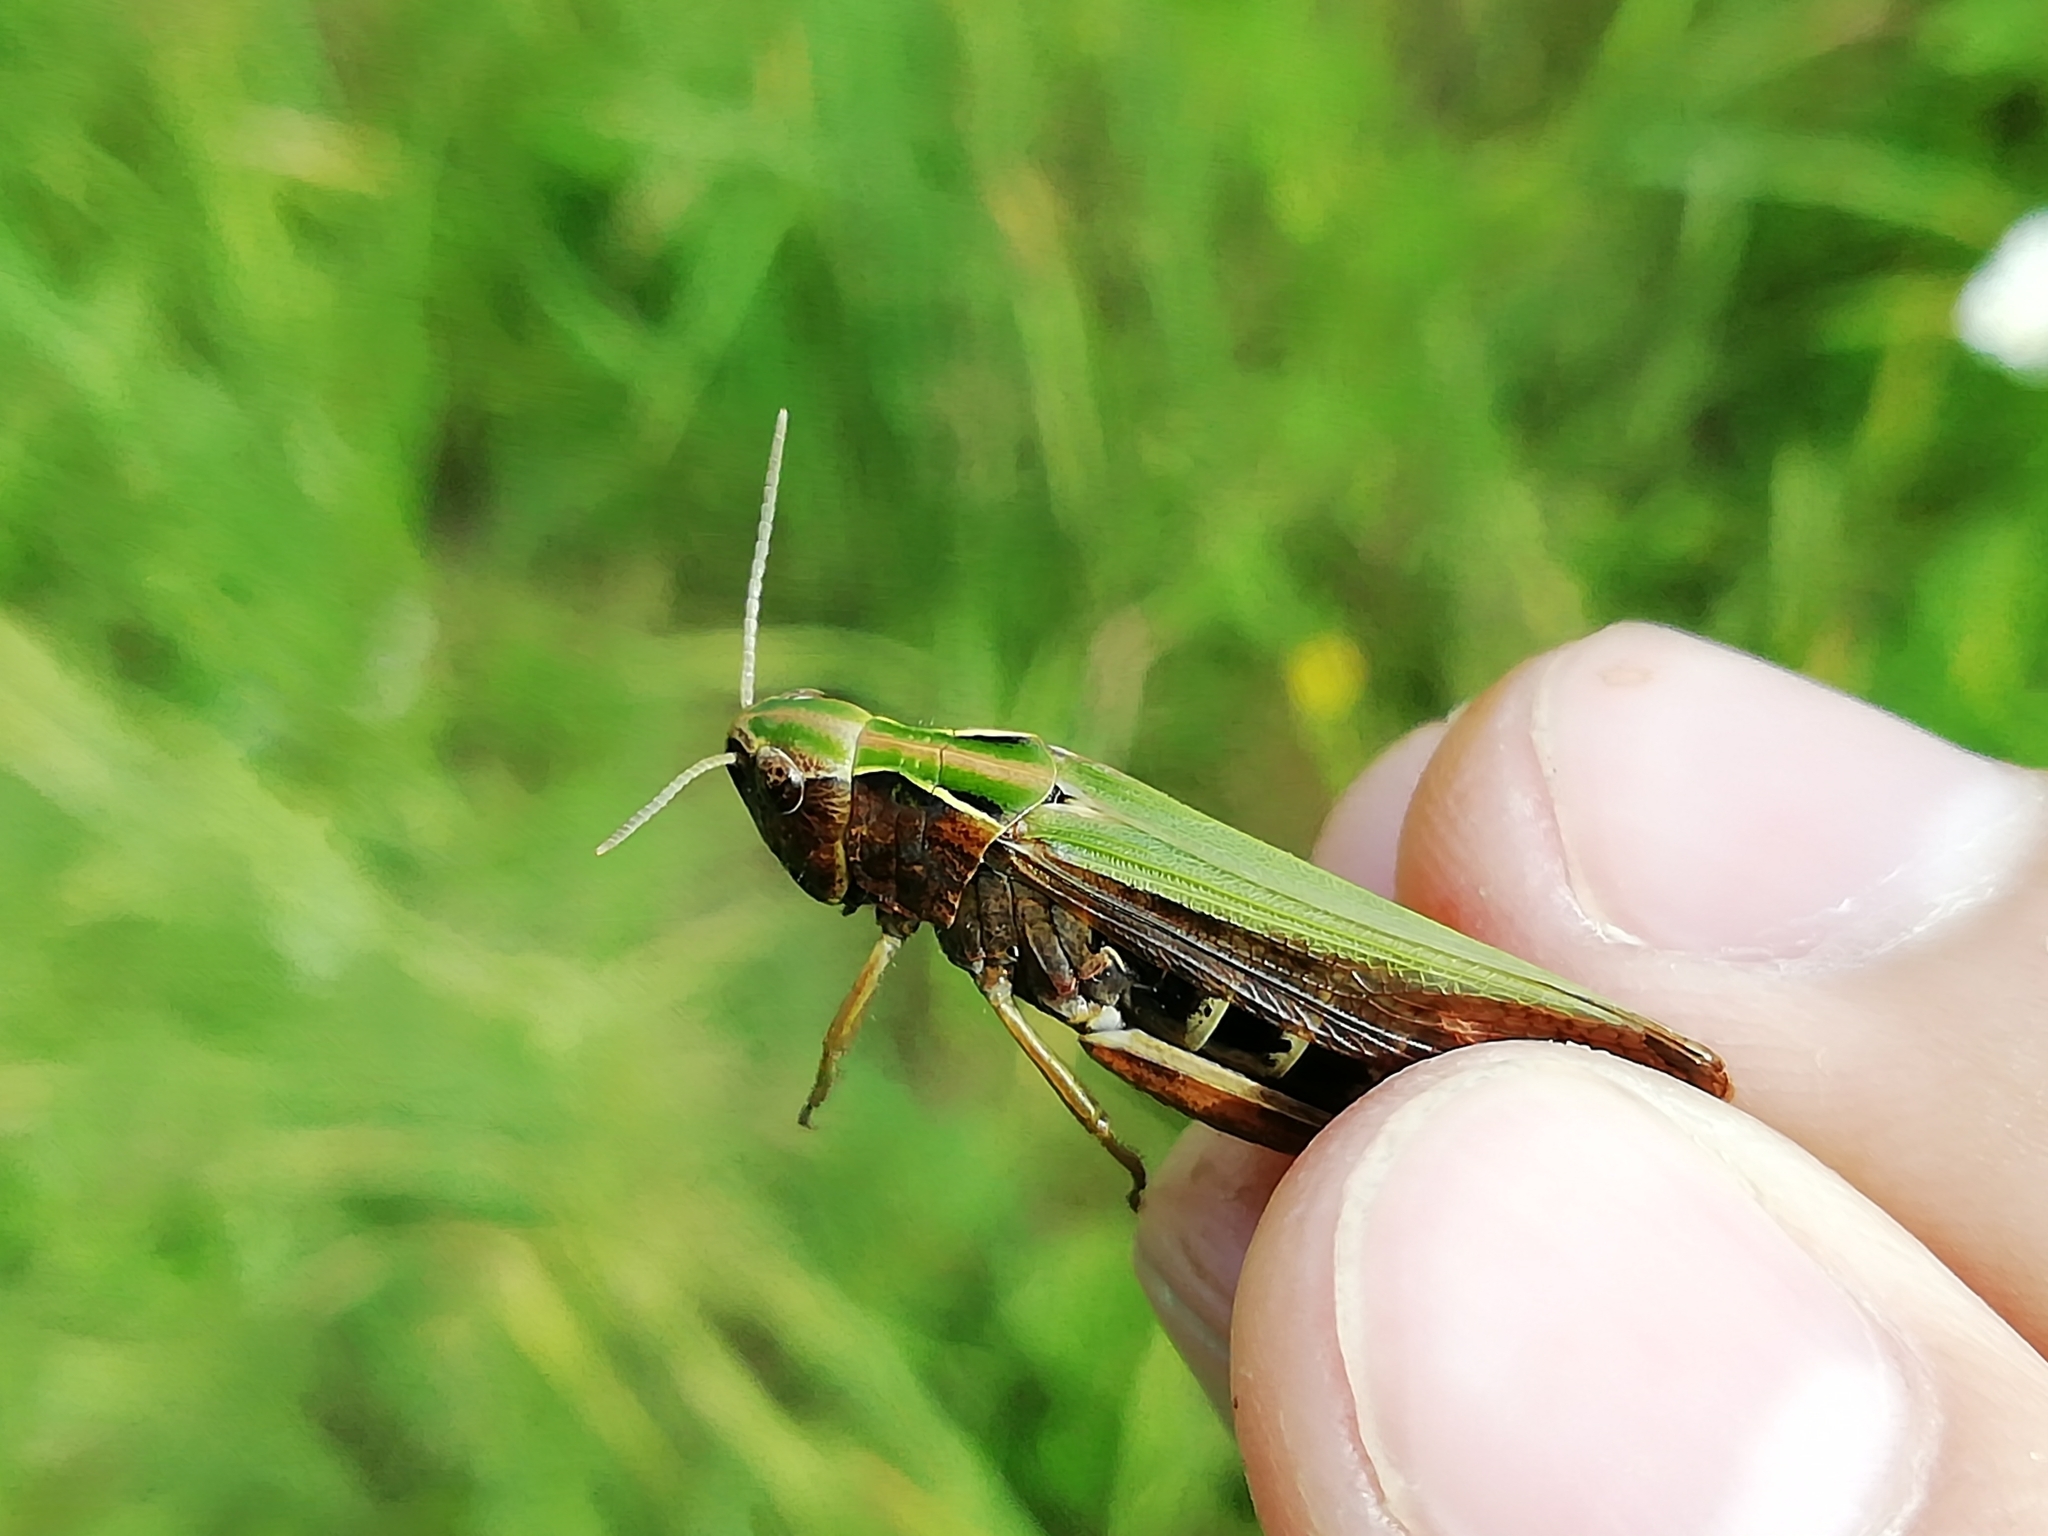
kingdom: Animalia
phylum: Arthropoda
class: Insecta
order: Orthoptera
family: Acrididae
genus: Omocestus
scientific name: Omocestus viridulus
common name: Common green grasshopper
